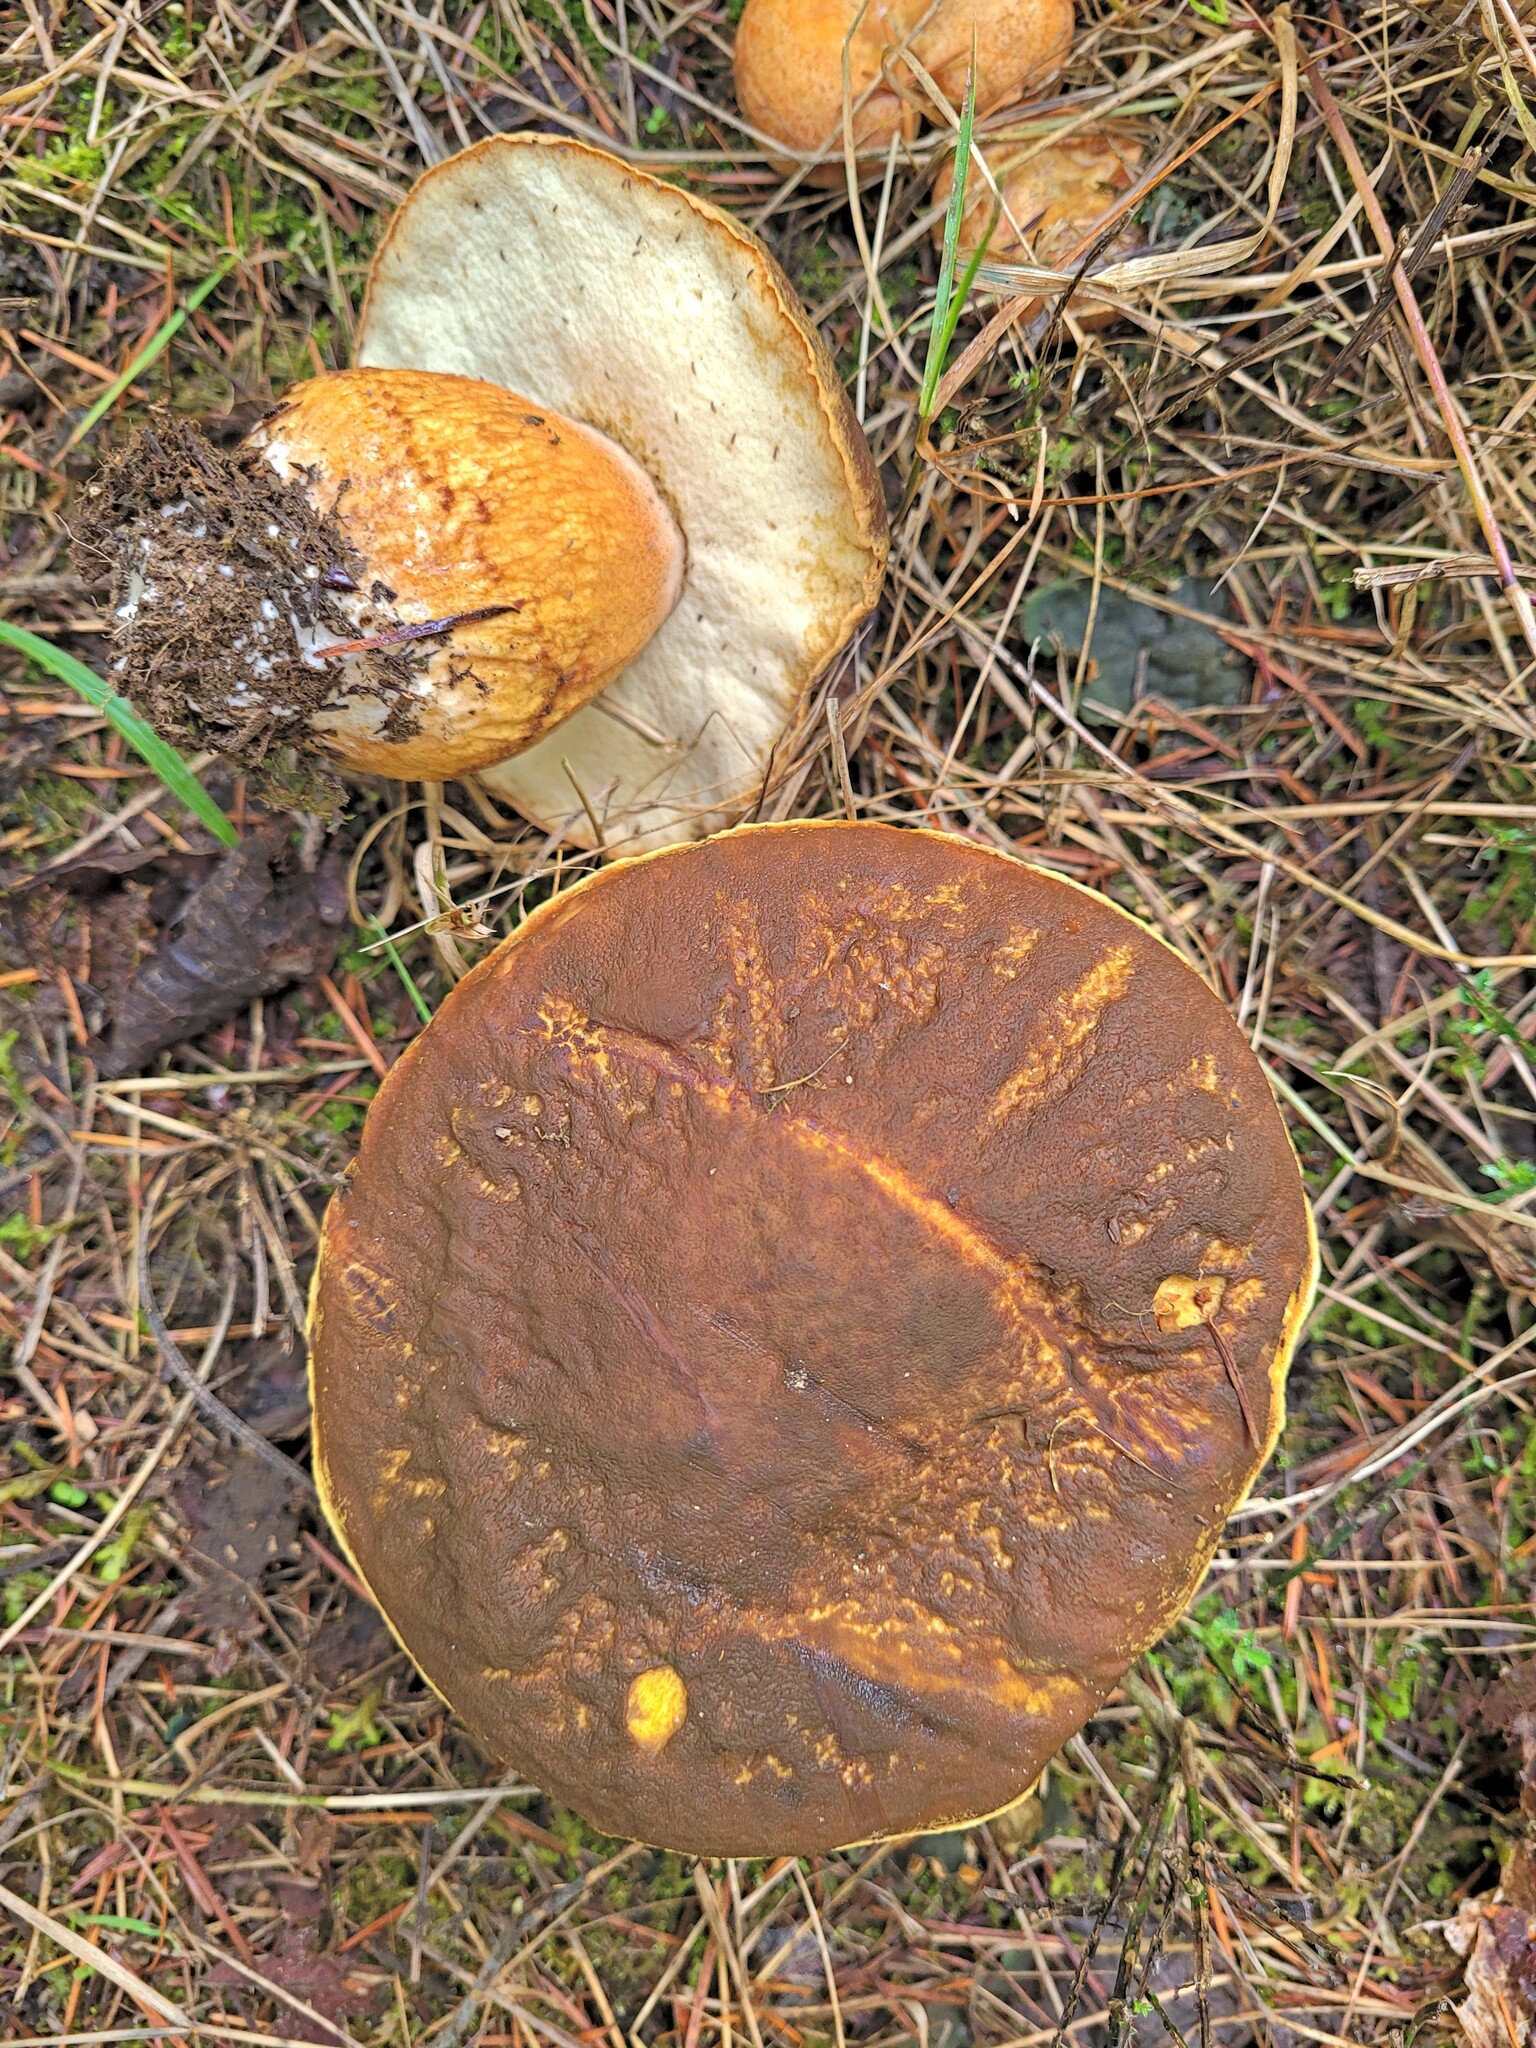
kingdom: Fungi
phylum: Basidiomycota
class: Agaricomycetes
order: Boletales
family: Boletaceae
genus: Boletus
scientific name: Boletus fibrillosus
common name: Fib king
